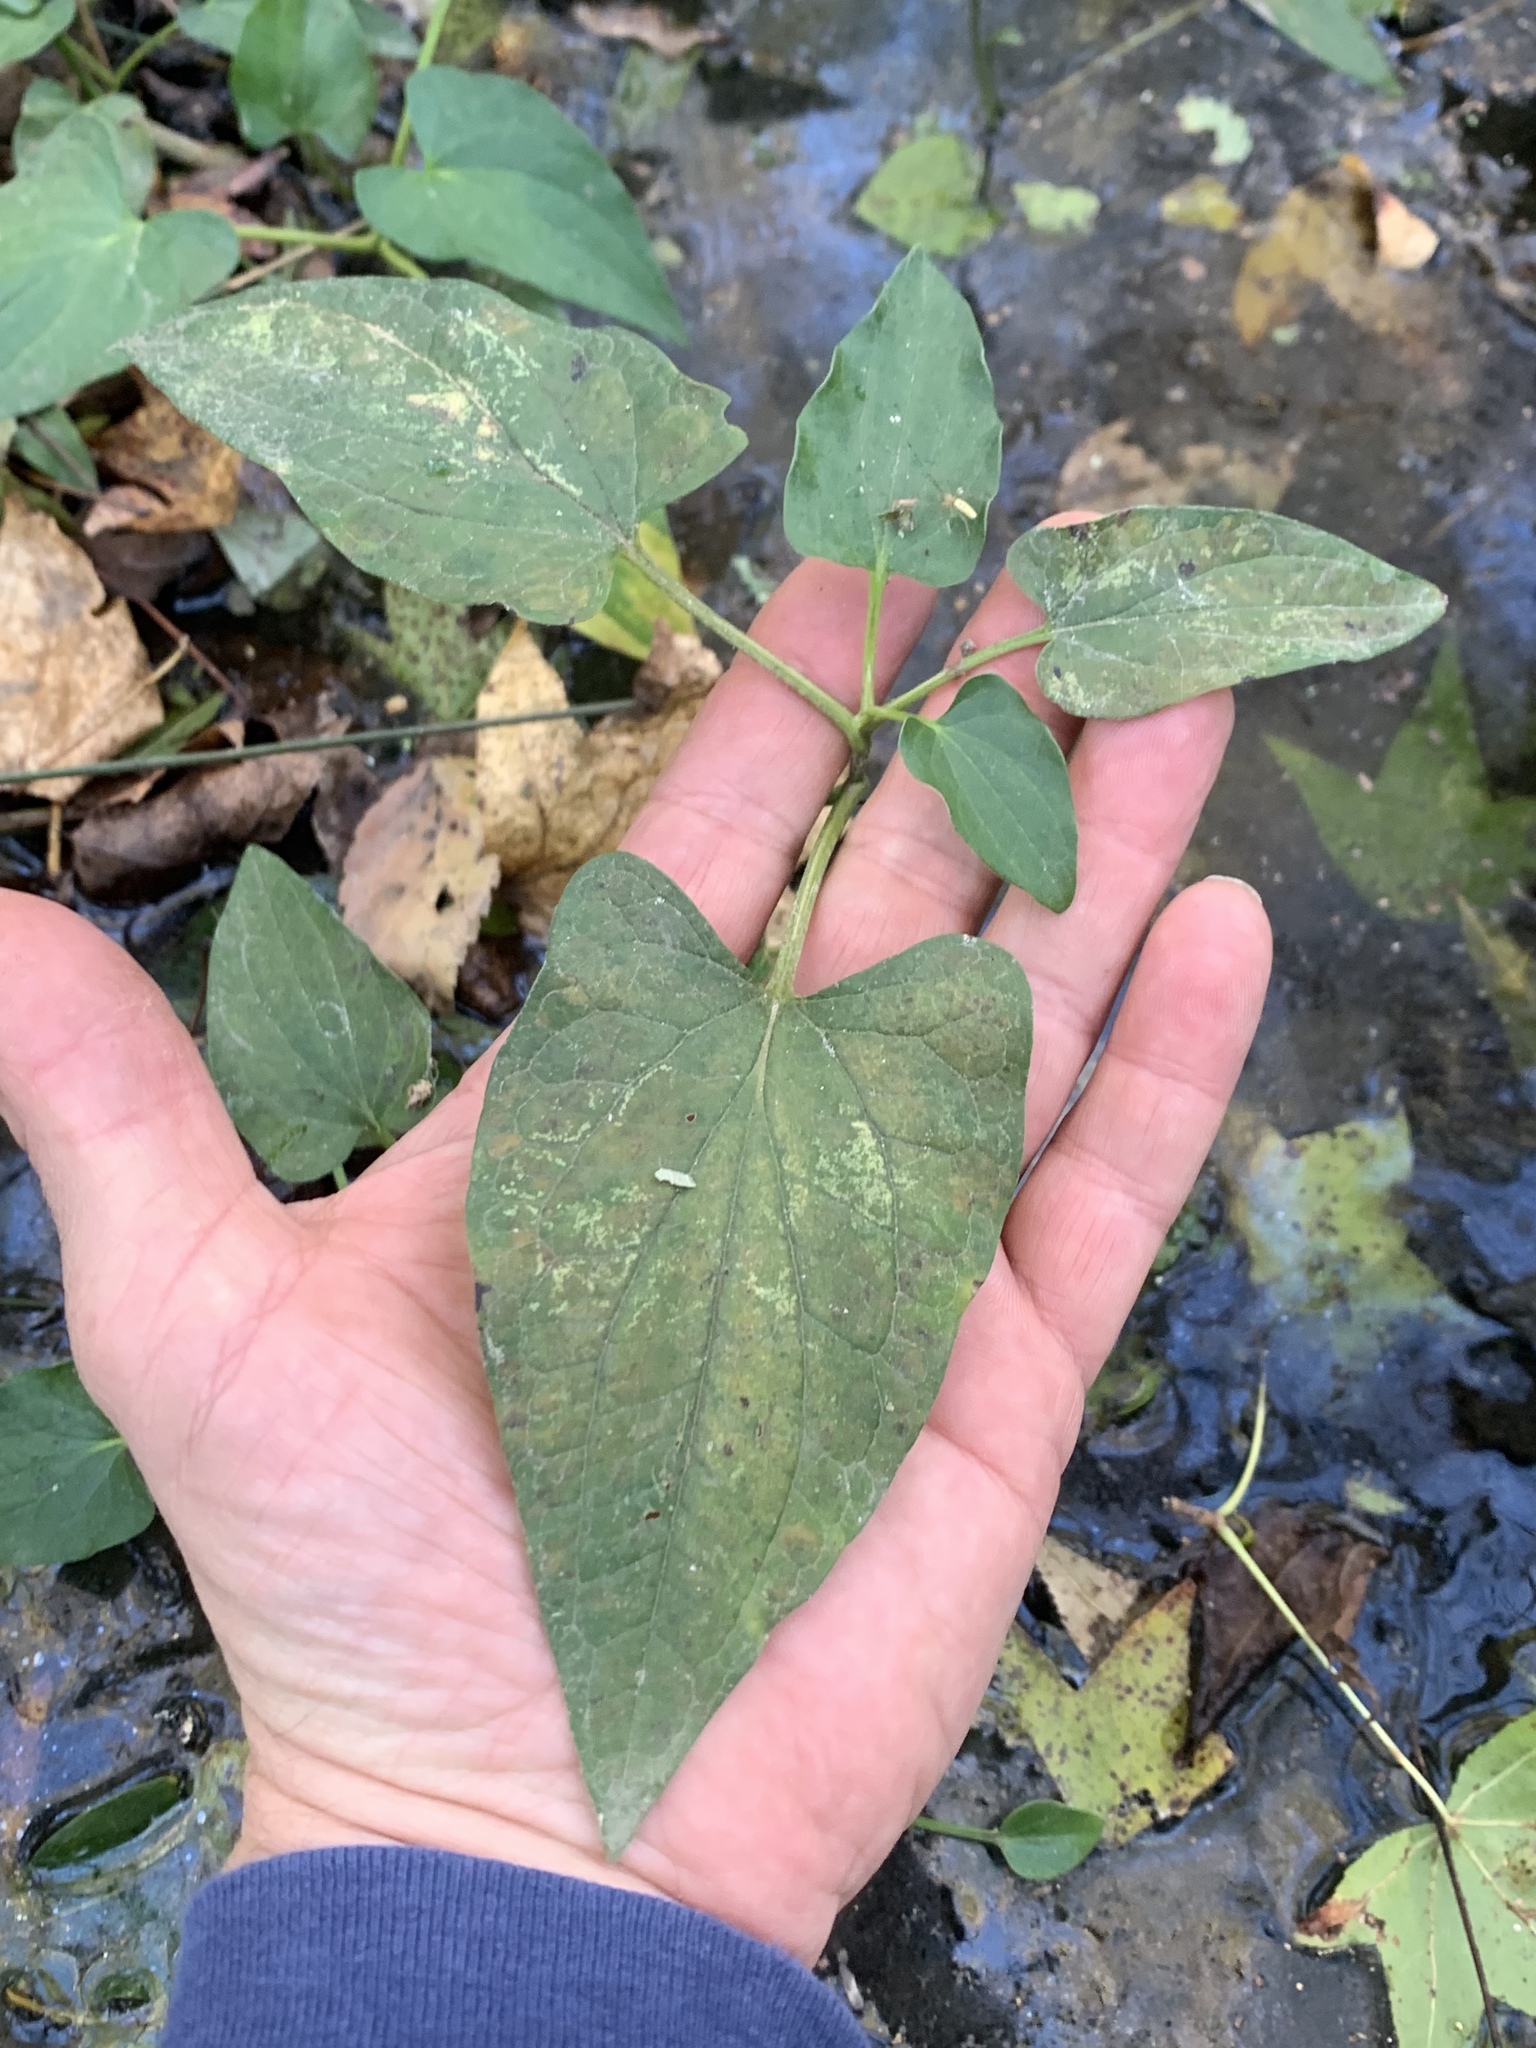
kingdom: Plantae
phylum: Tracheophyta
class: Magnoliopsida
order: Piperales
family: Saururaceae
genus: Saururus
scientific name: Saururus cernuus
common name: Lizard's-tail
